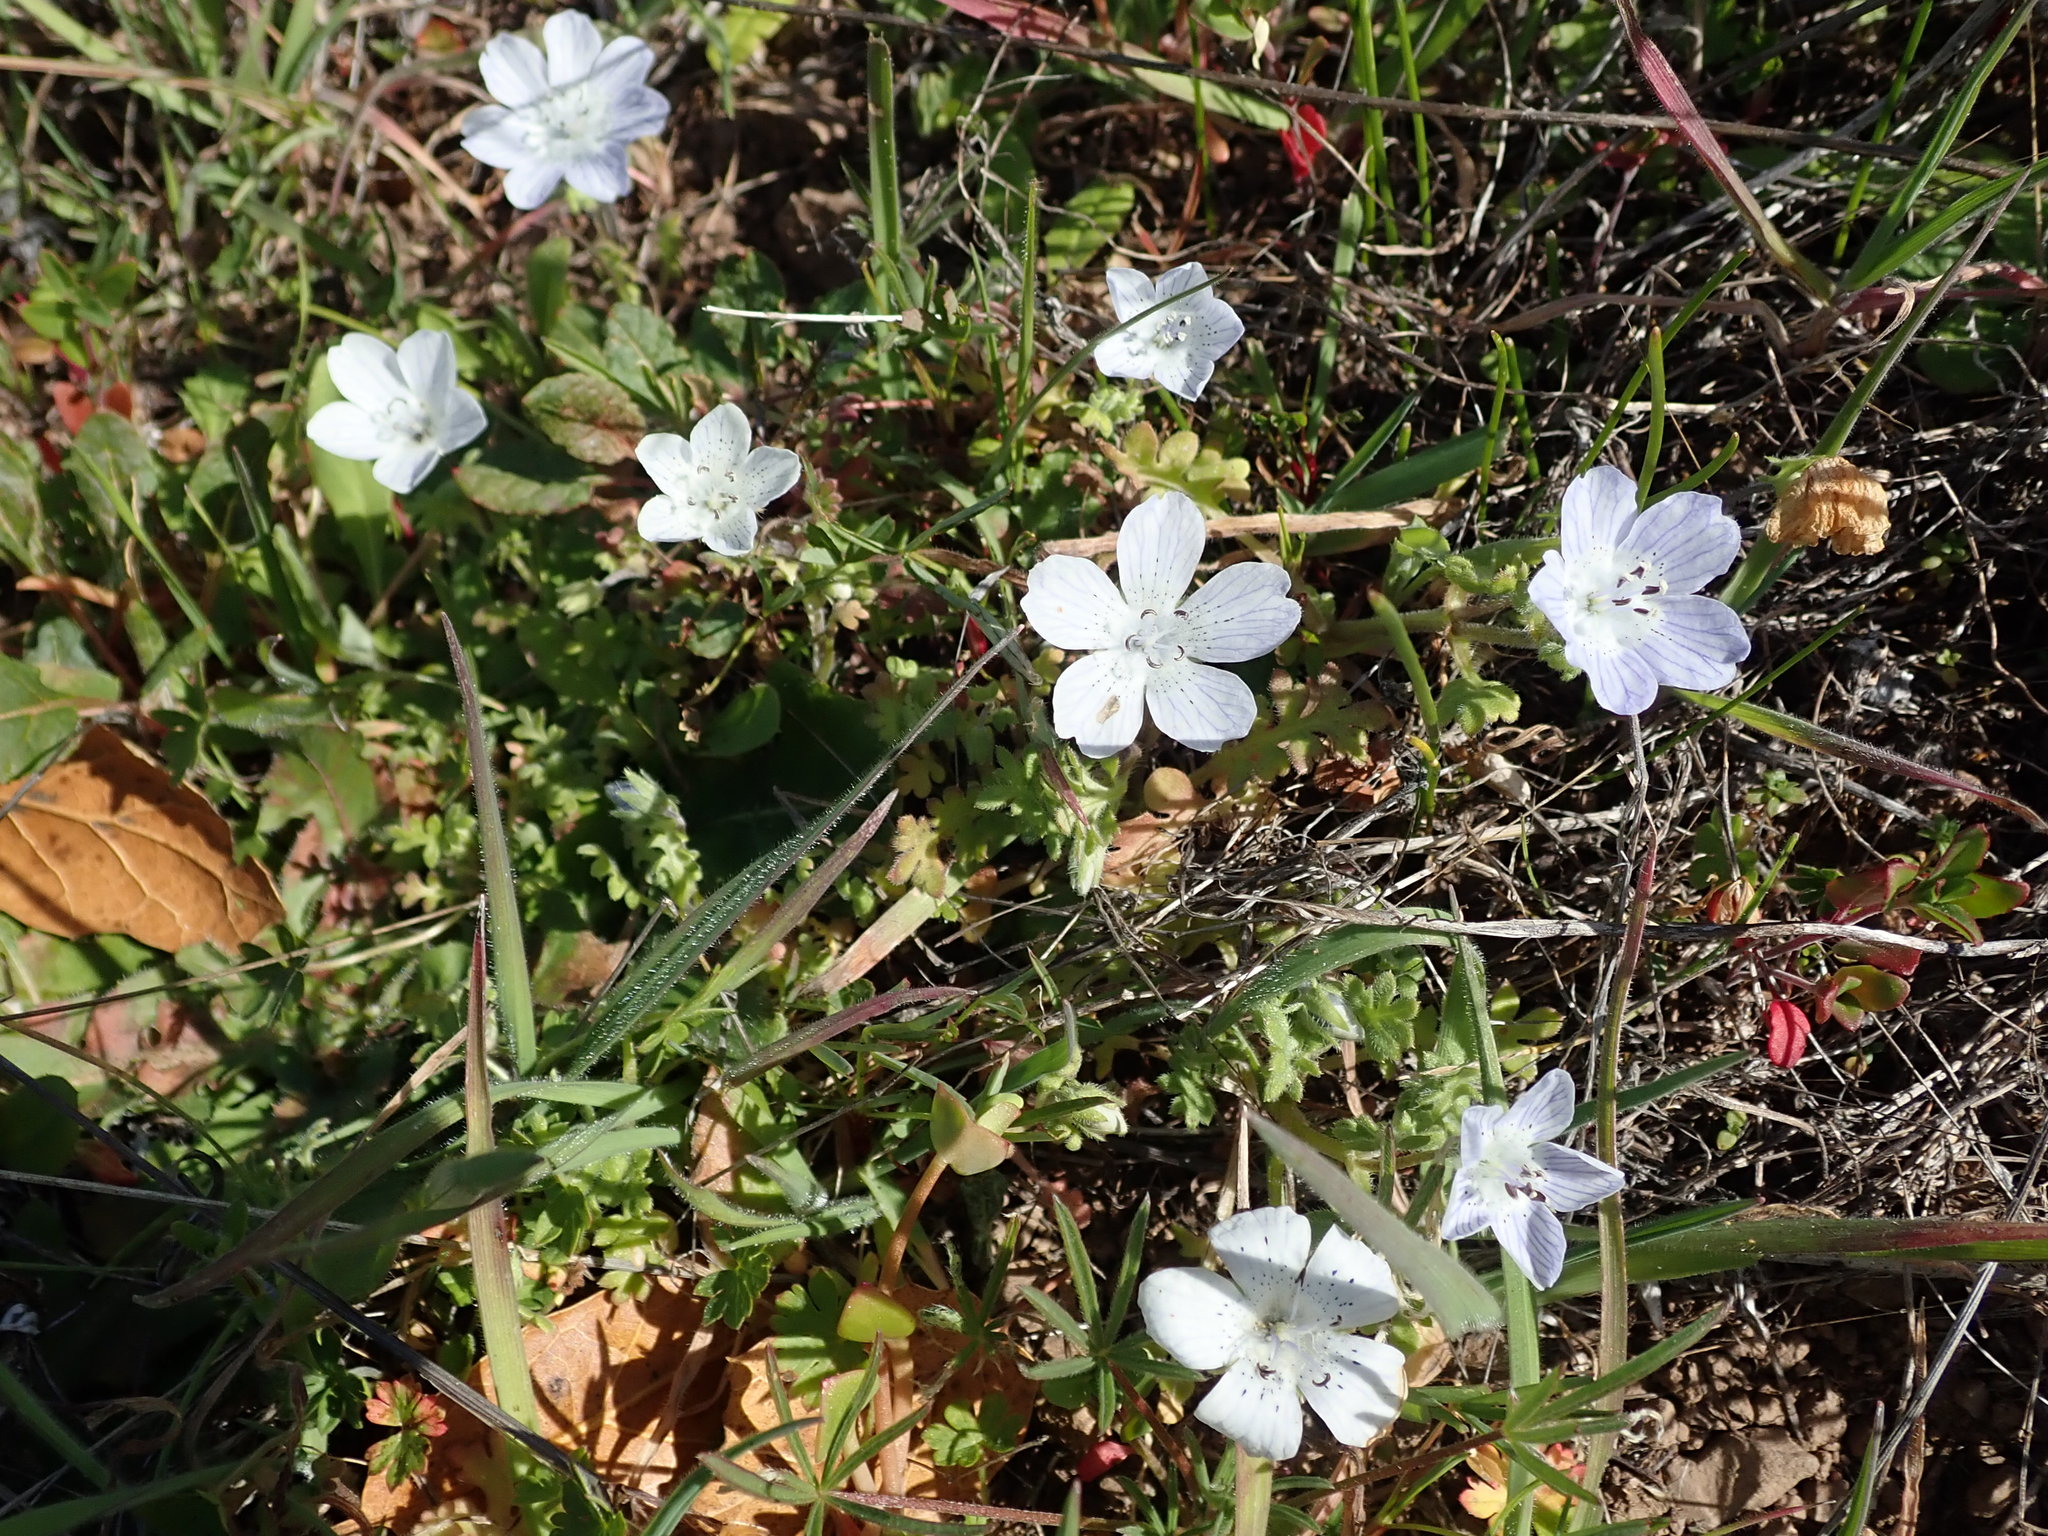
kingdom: Plantae
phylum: Tracheophyta
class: Magnoliopsida
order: Boraginales
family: Hydrophyllaceae
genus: Nemophila
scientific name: Nemophila menziesii
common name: Baby's-blue-eyes
